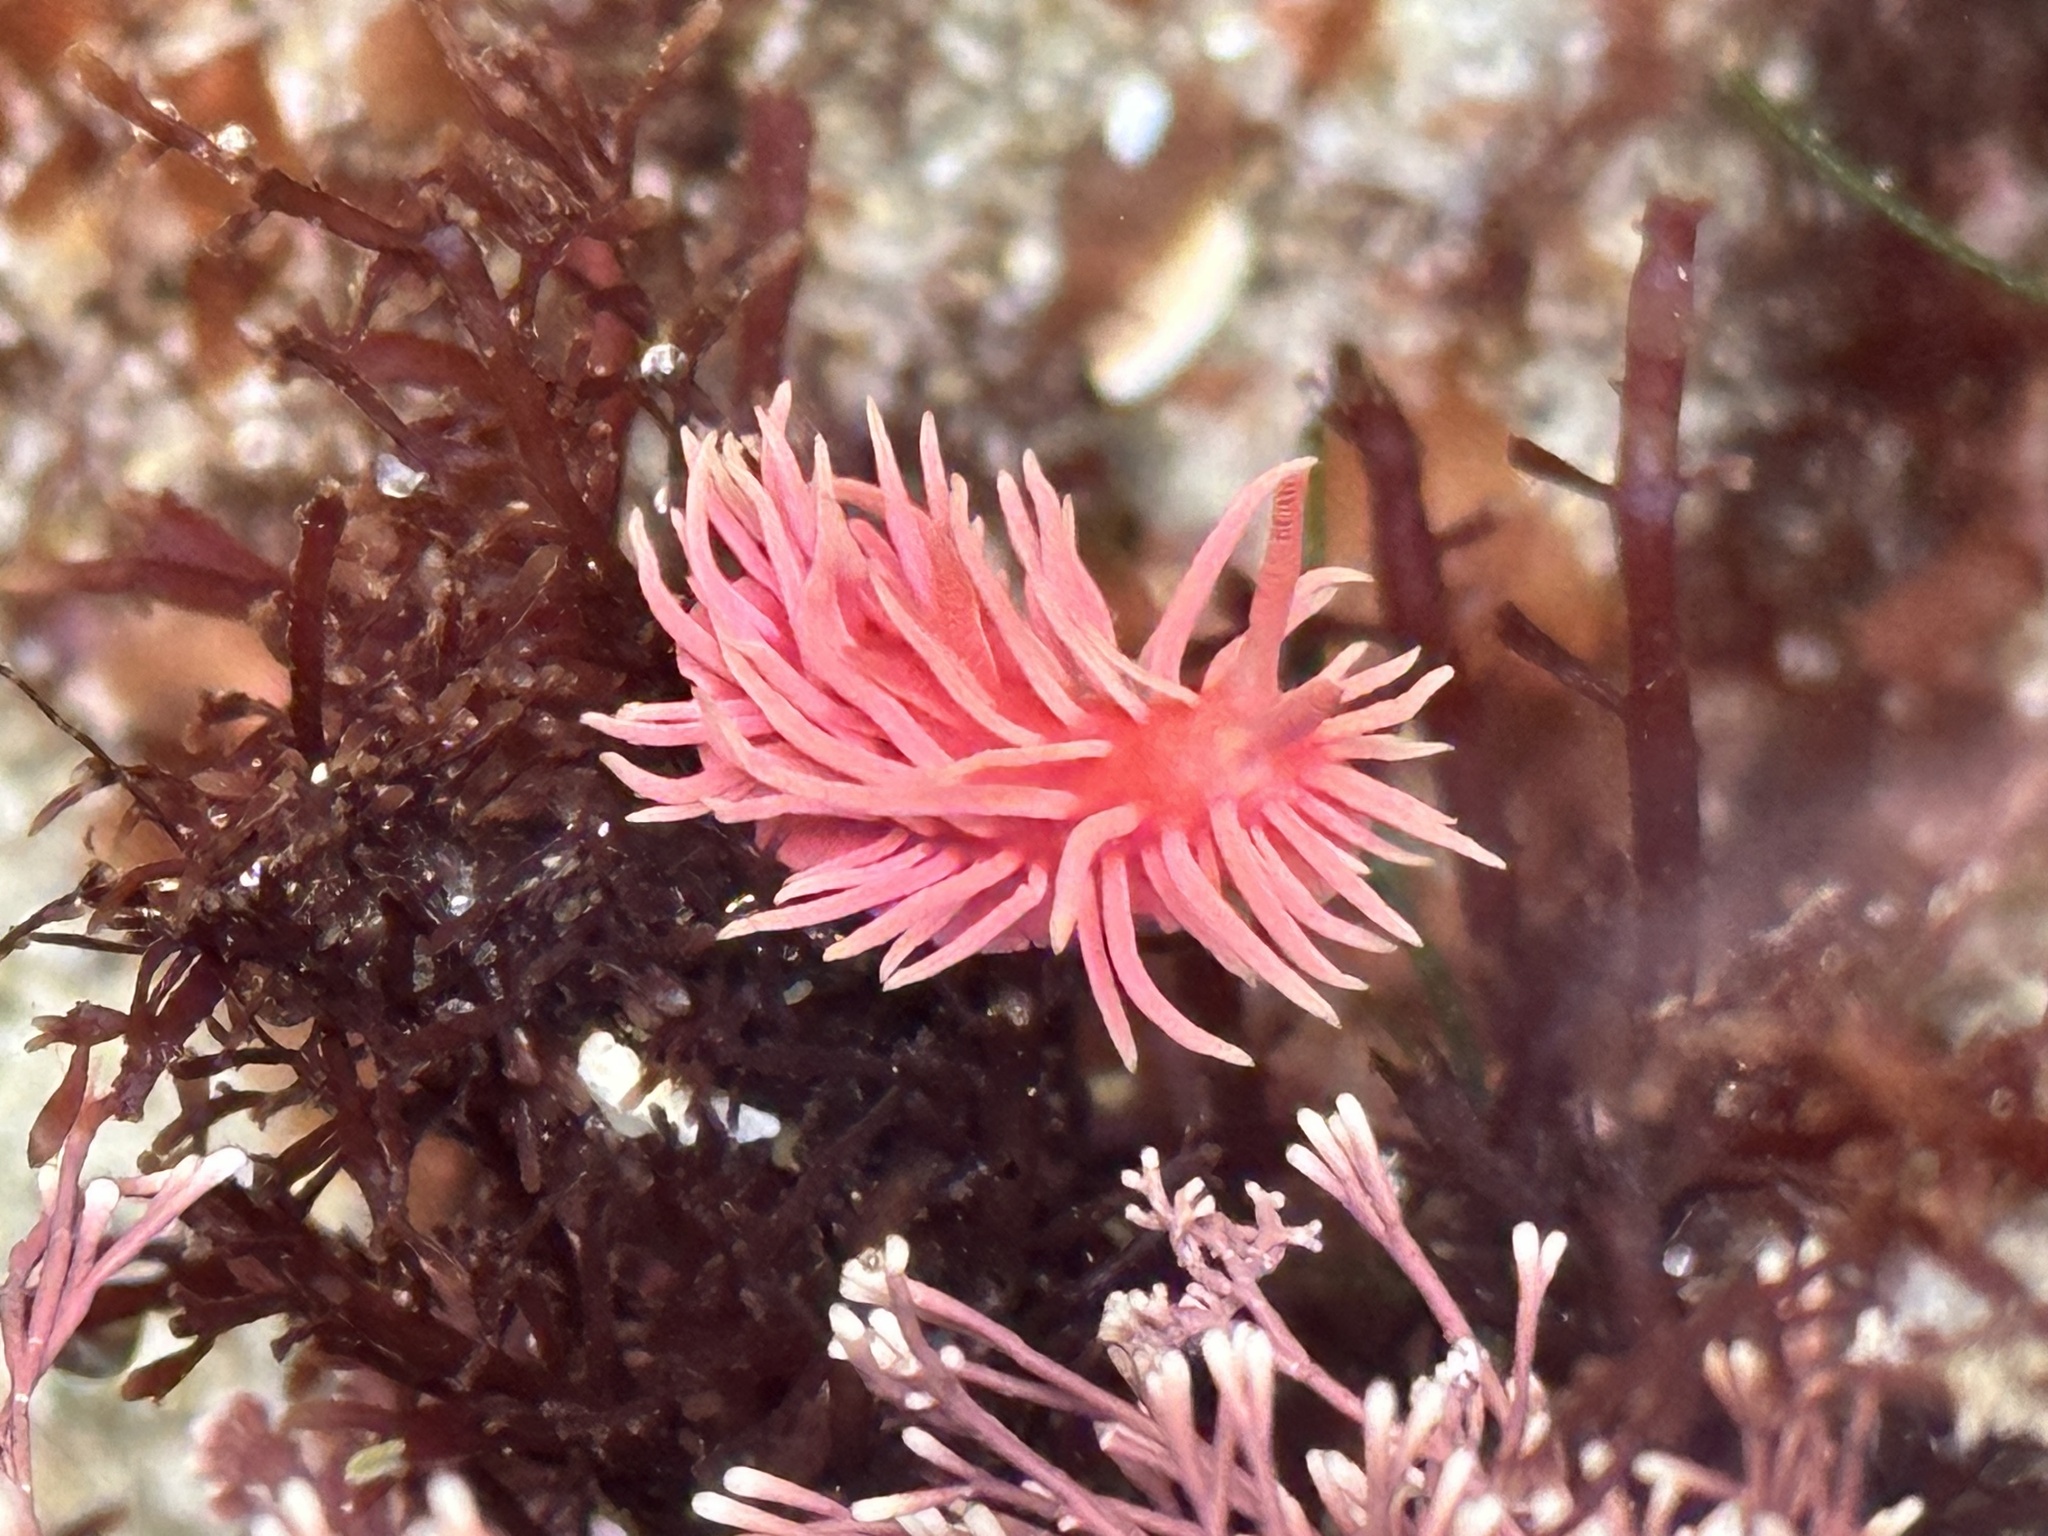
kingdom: Animalia
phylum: Mollusca
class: Gastropoda
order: Nudibranchia
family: Goniodorididae
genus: Okenia
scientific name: Okenia
